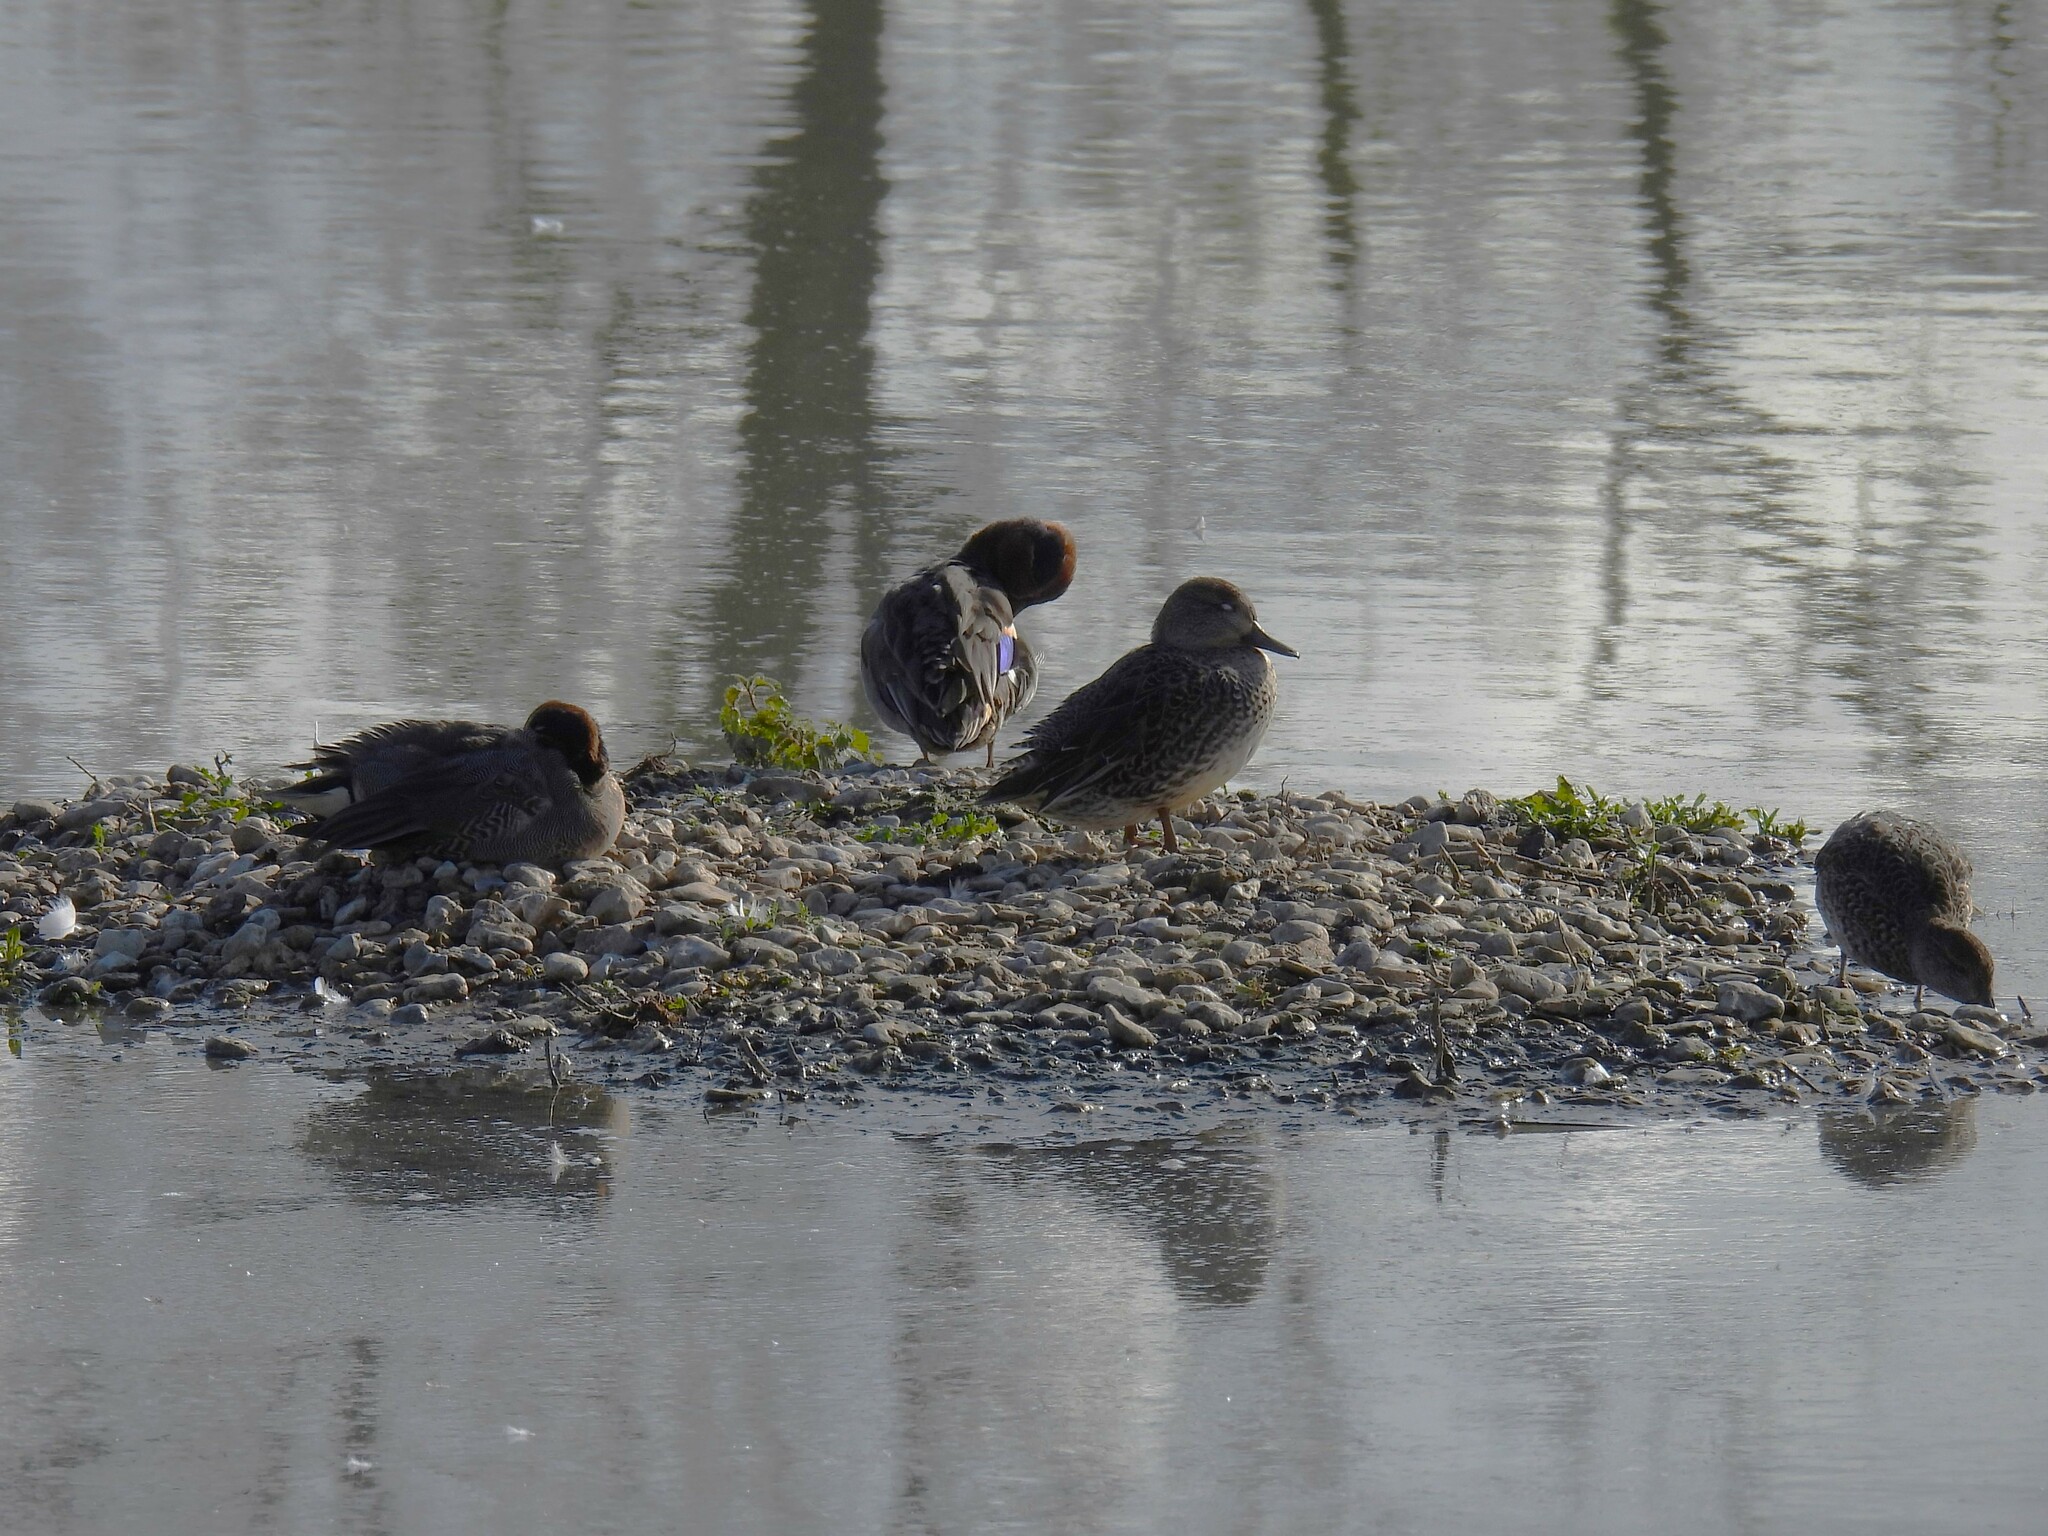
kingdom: Animalia
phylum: Chordata
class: Aves
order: Anseriformes
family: Anatidae
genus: Anas
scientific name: Anas crecca
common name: Eurasian teal
